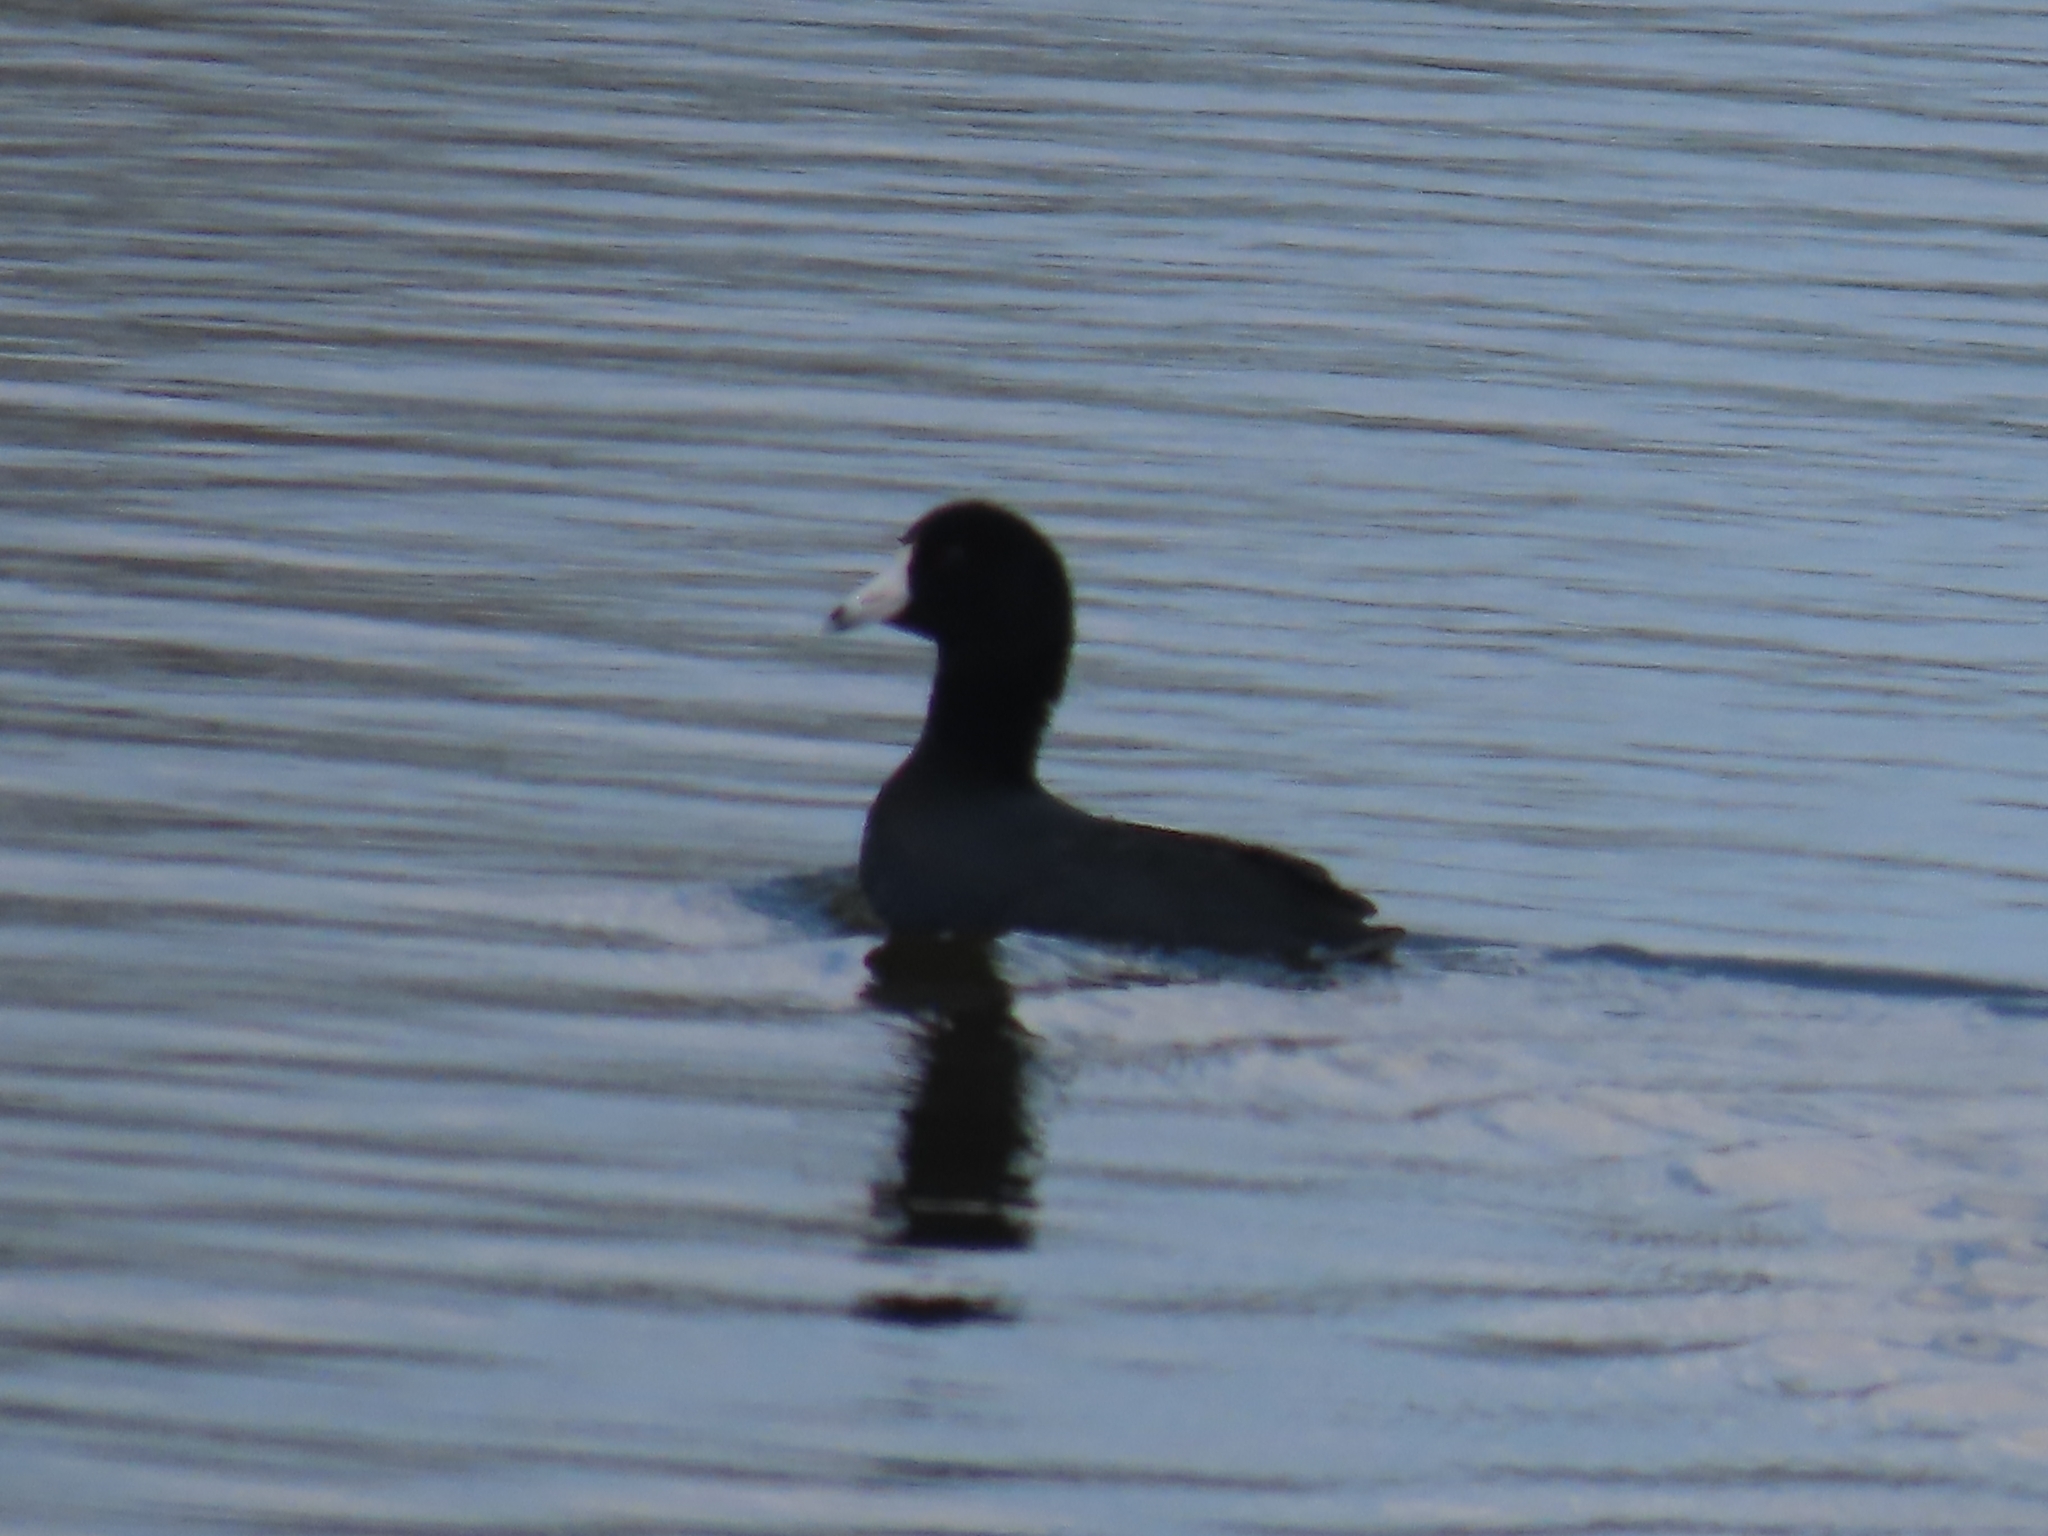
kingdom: Animalia
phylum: Chordata
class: Aves
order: Gruiformes
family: Rallidae
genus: Fulica
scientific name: Fulica americana
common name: American coot
